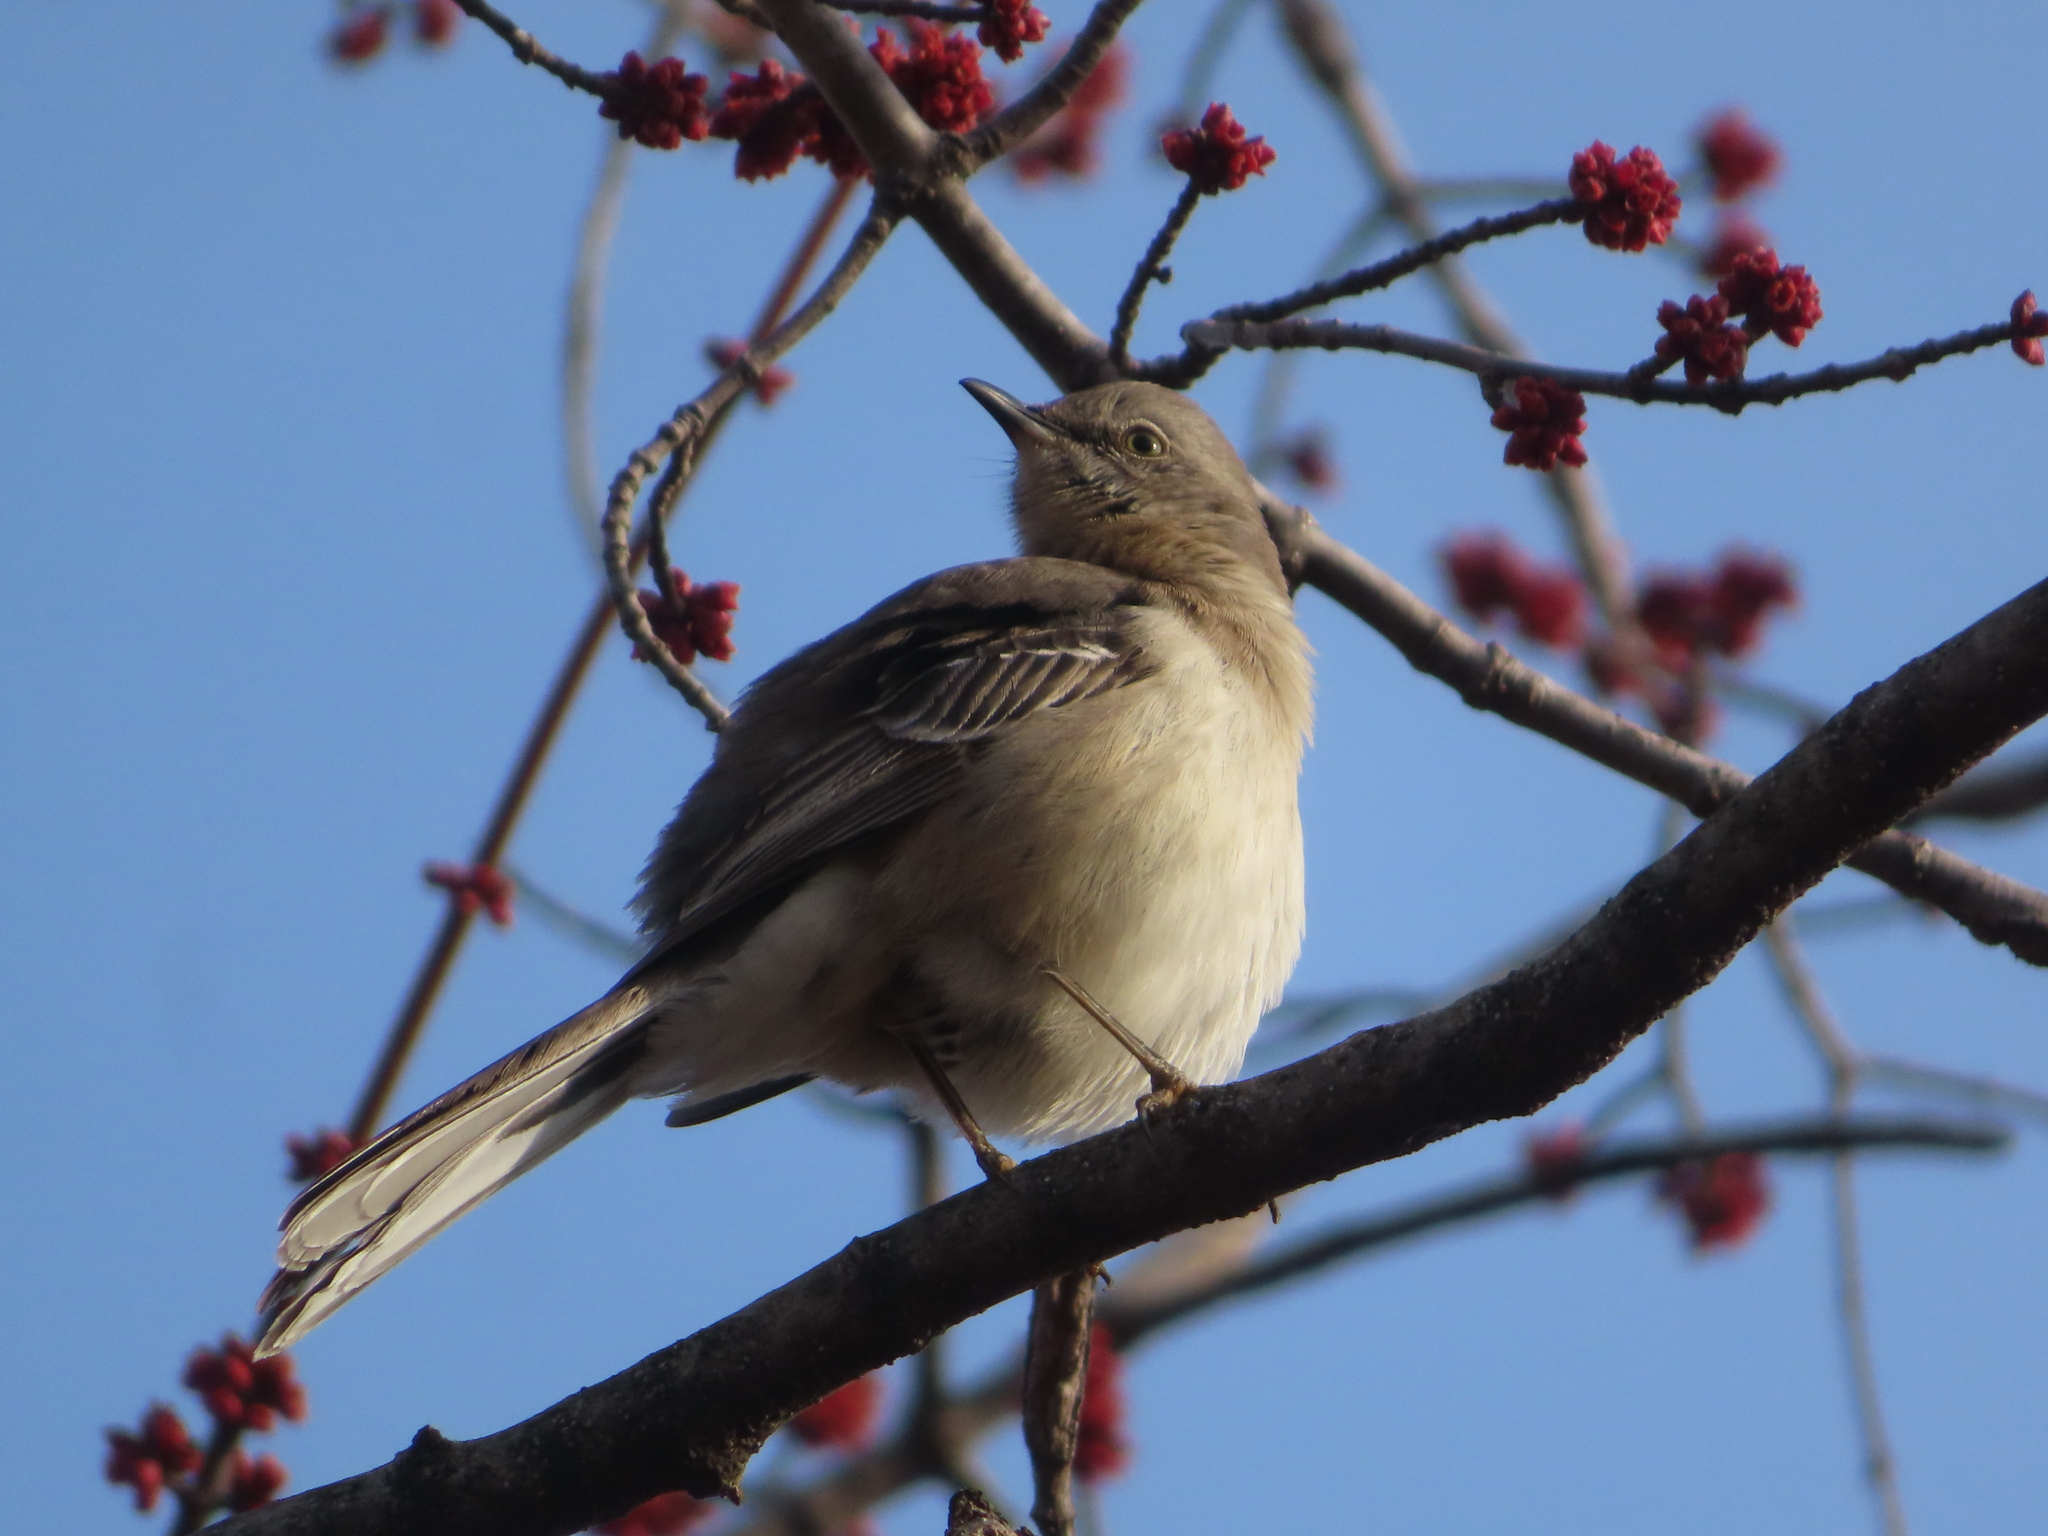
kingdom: Animalia
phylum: Chordata
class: Aves
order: Passeriformes
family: Mimidae
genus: Mimus
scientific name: Mimus polyglottos
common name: Northern mockingbird
